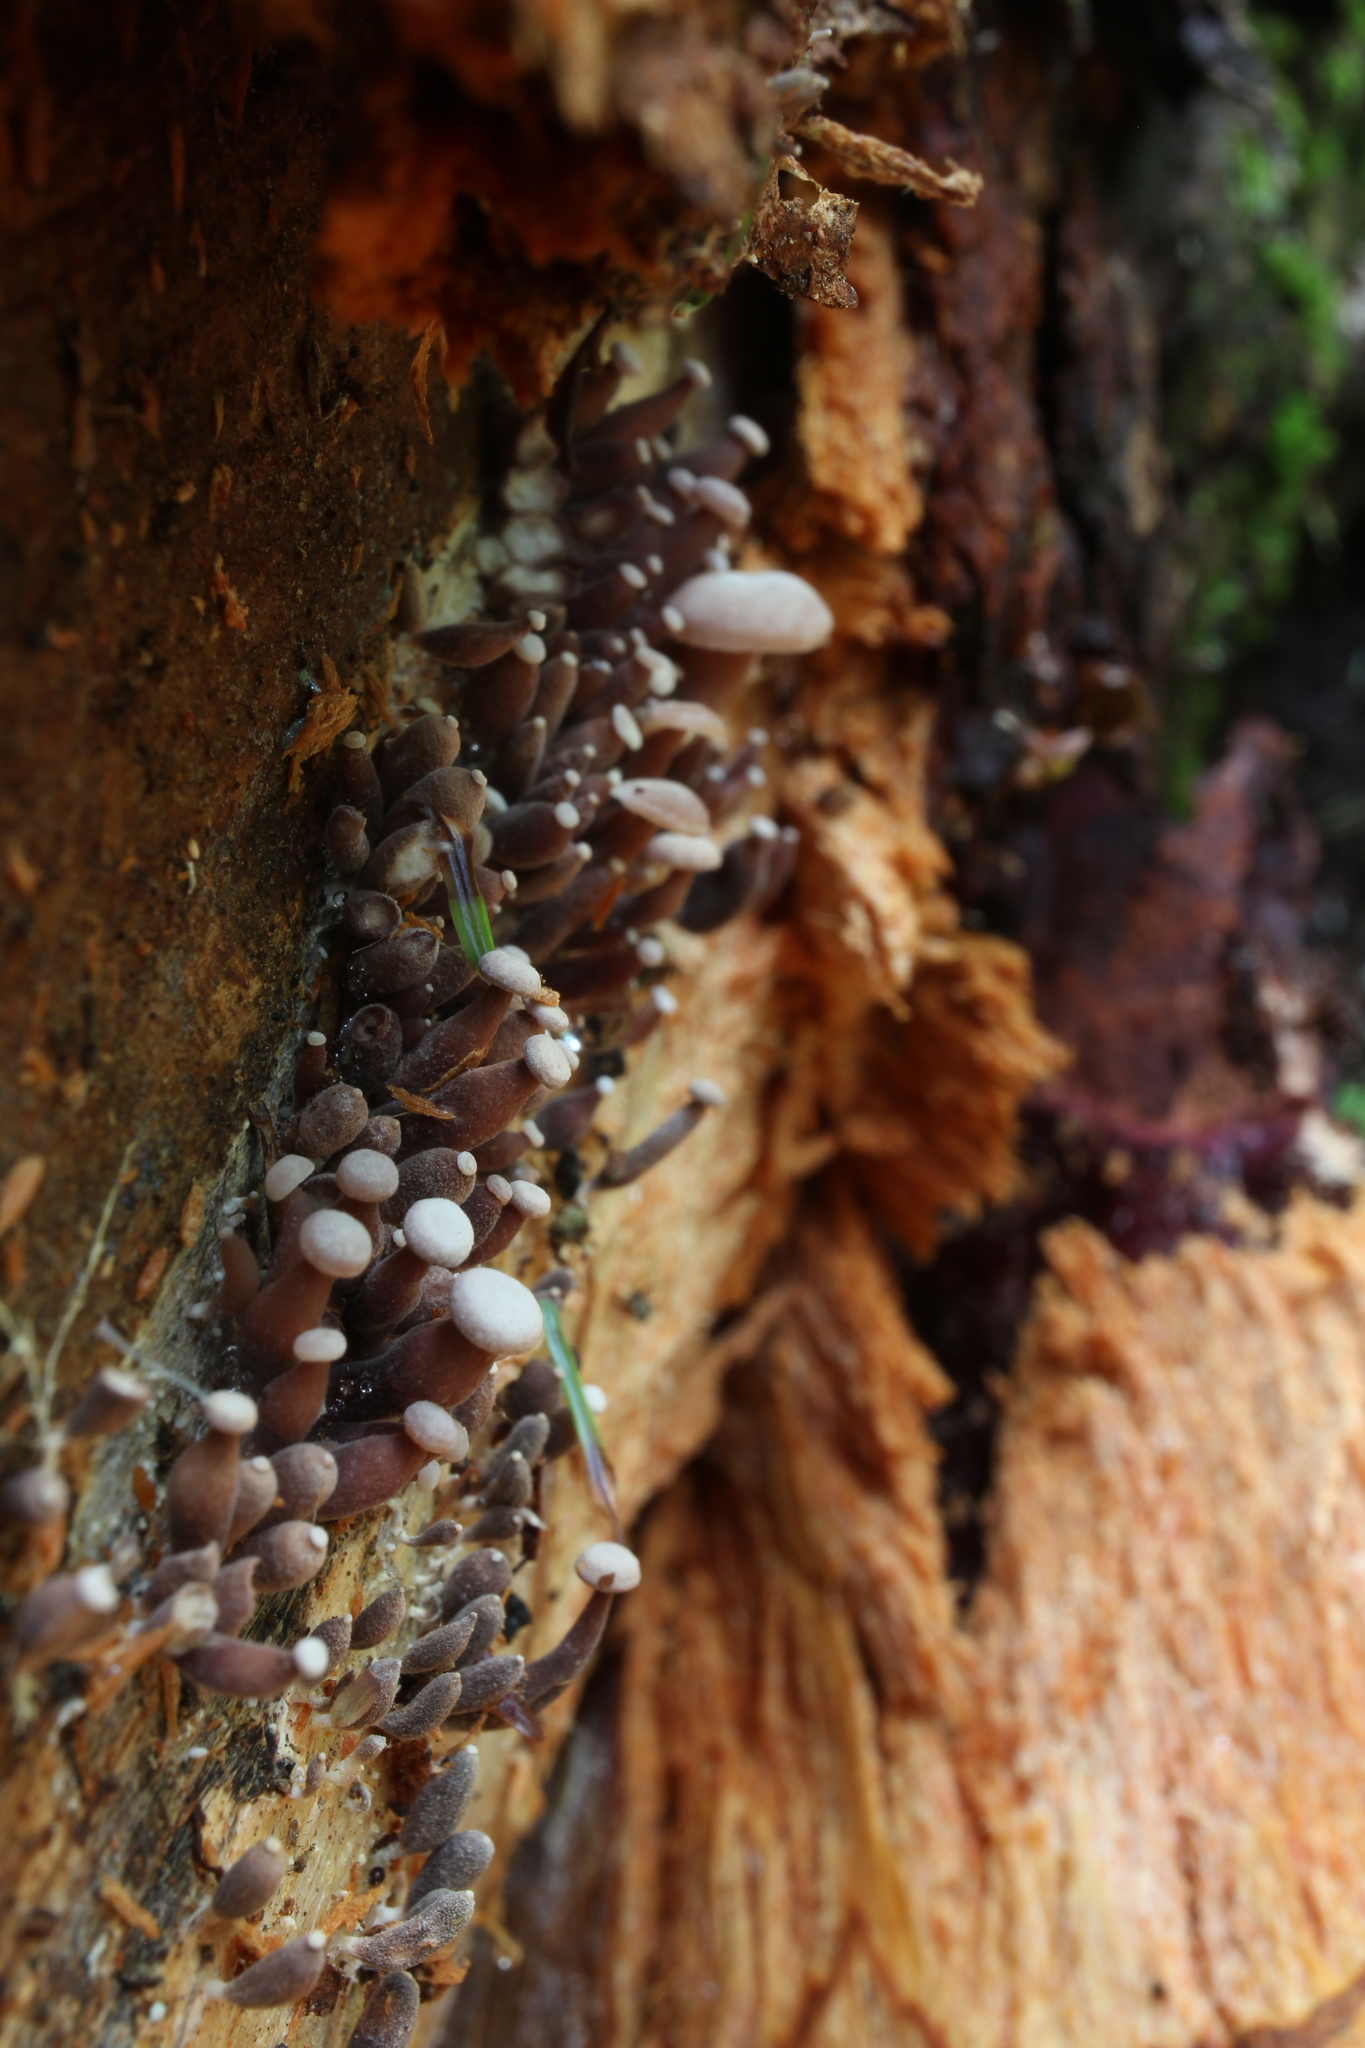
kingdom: Fungi
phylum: Basidiomycota
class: Agaricomycetes
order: Agaricales
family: Omphalotaceae
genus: Marasmiellus
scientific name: Marasmiellus praeacutus
